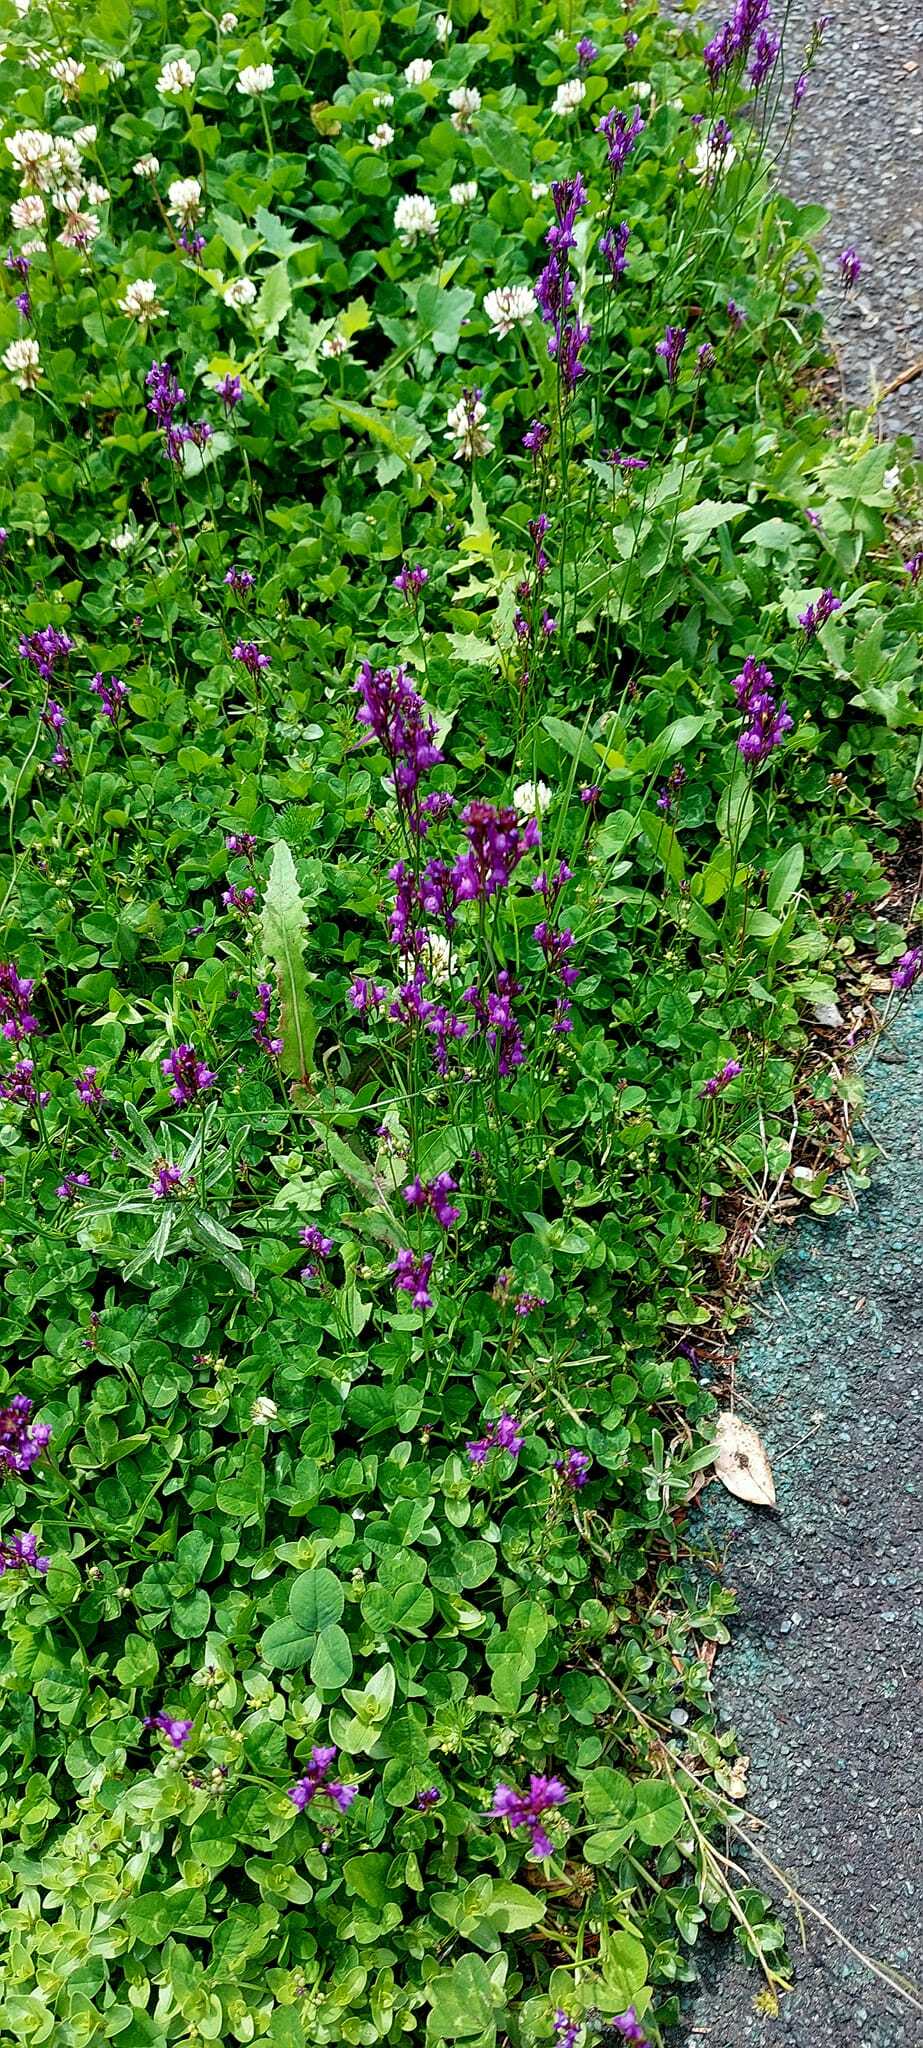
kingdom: Plantae
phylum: Tracheophyta
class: Magnoliopsida
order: Lamiales
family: Plantaginaceae
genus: Linaria
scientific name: Linaria pelisseriana
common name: Jersey toadflax
